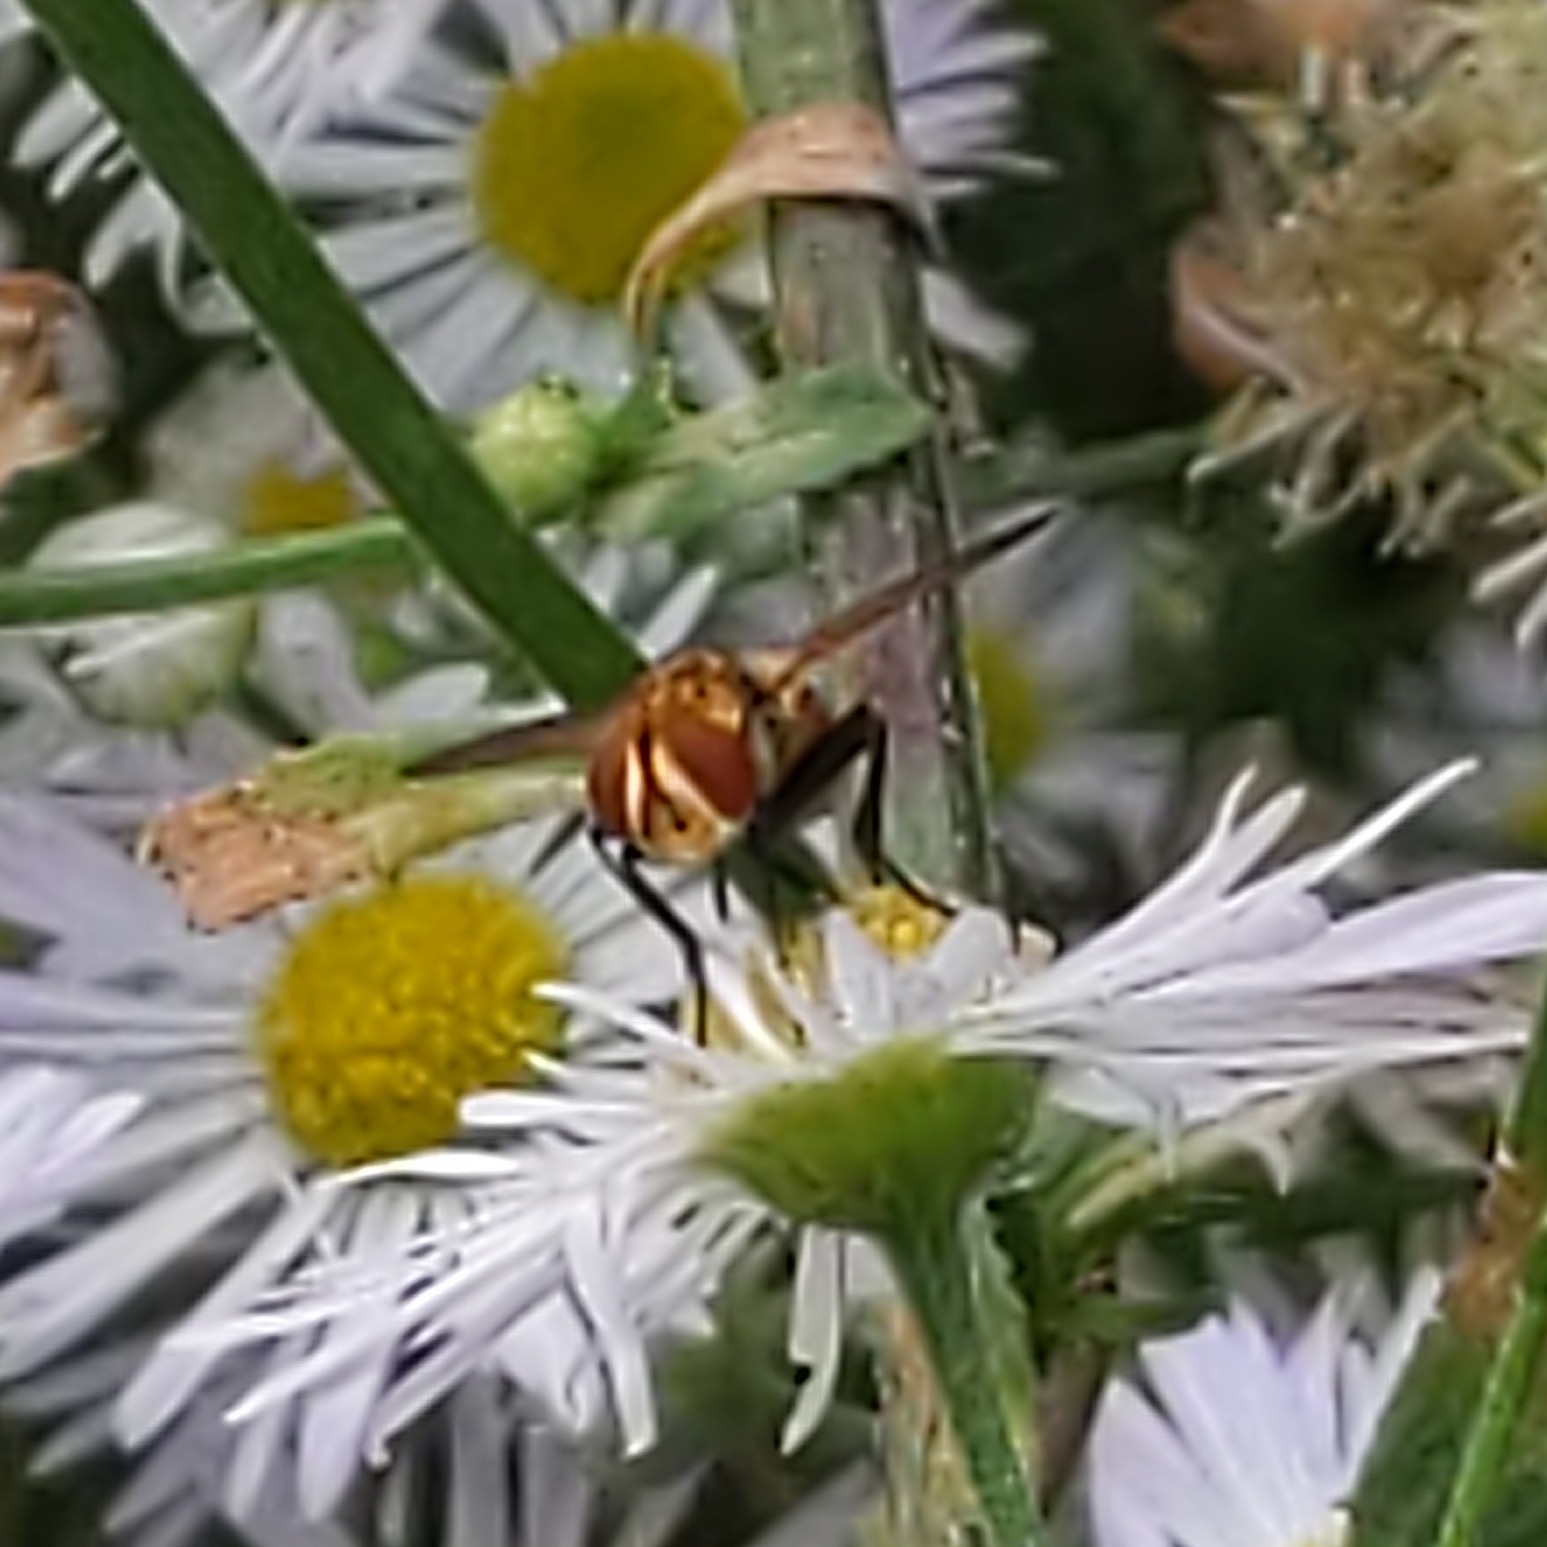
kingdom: Animalia
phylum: Arthropoda
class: Insecta
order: Diptera
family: Tachinidae
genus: Gymnoclytia
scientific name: Gymnoclytia
